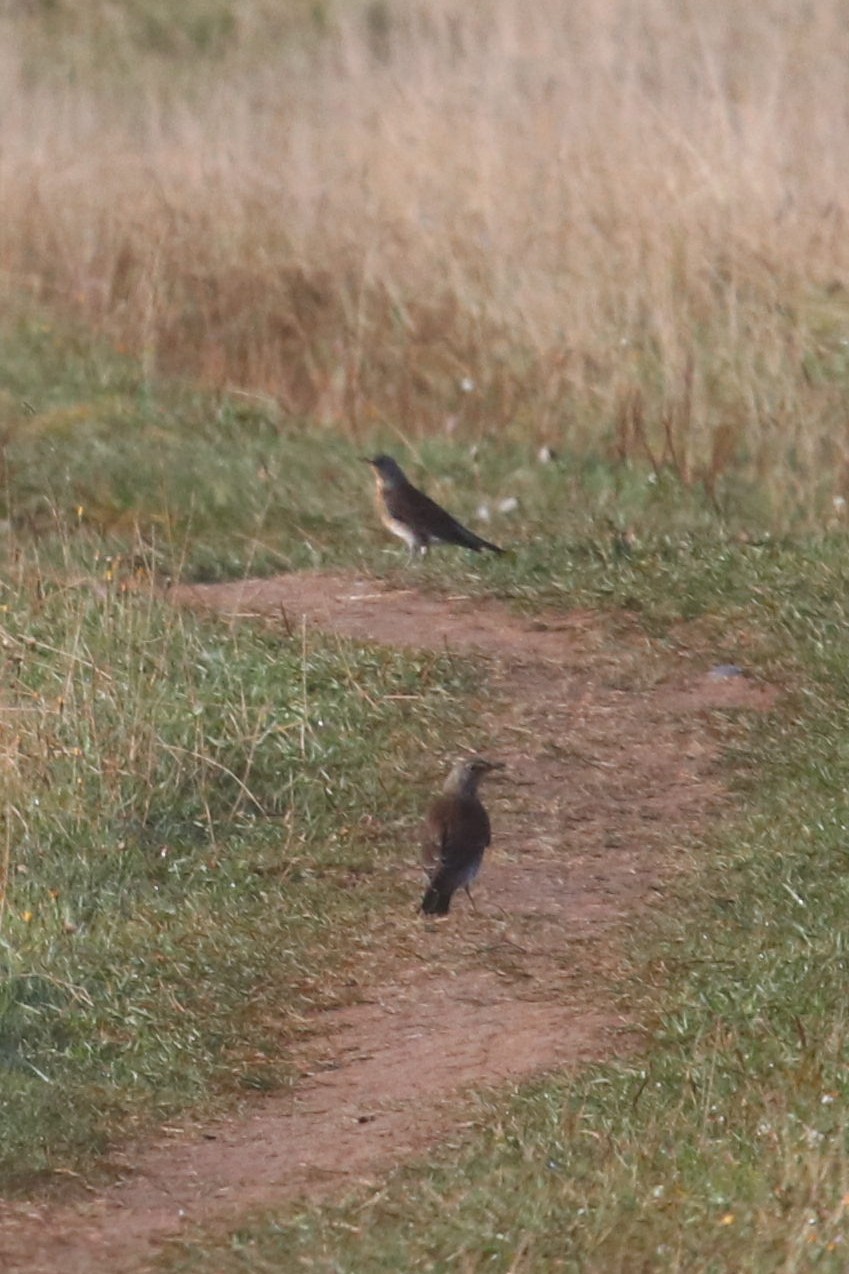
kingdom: Animalia
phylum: Chordata
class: Aves
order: Passeriformes
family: Turdidae
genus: Turdus
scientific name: Turdus pilaris
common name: Fieldfare
